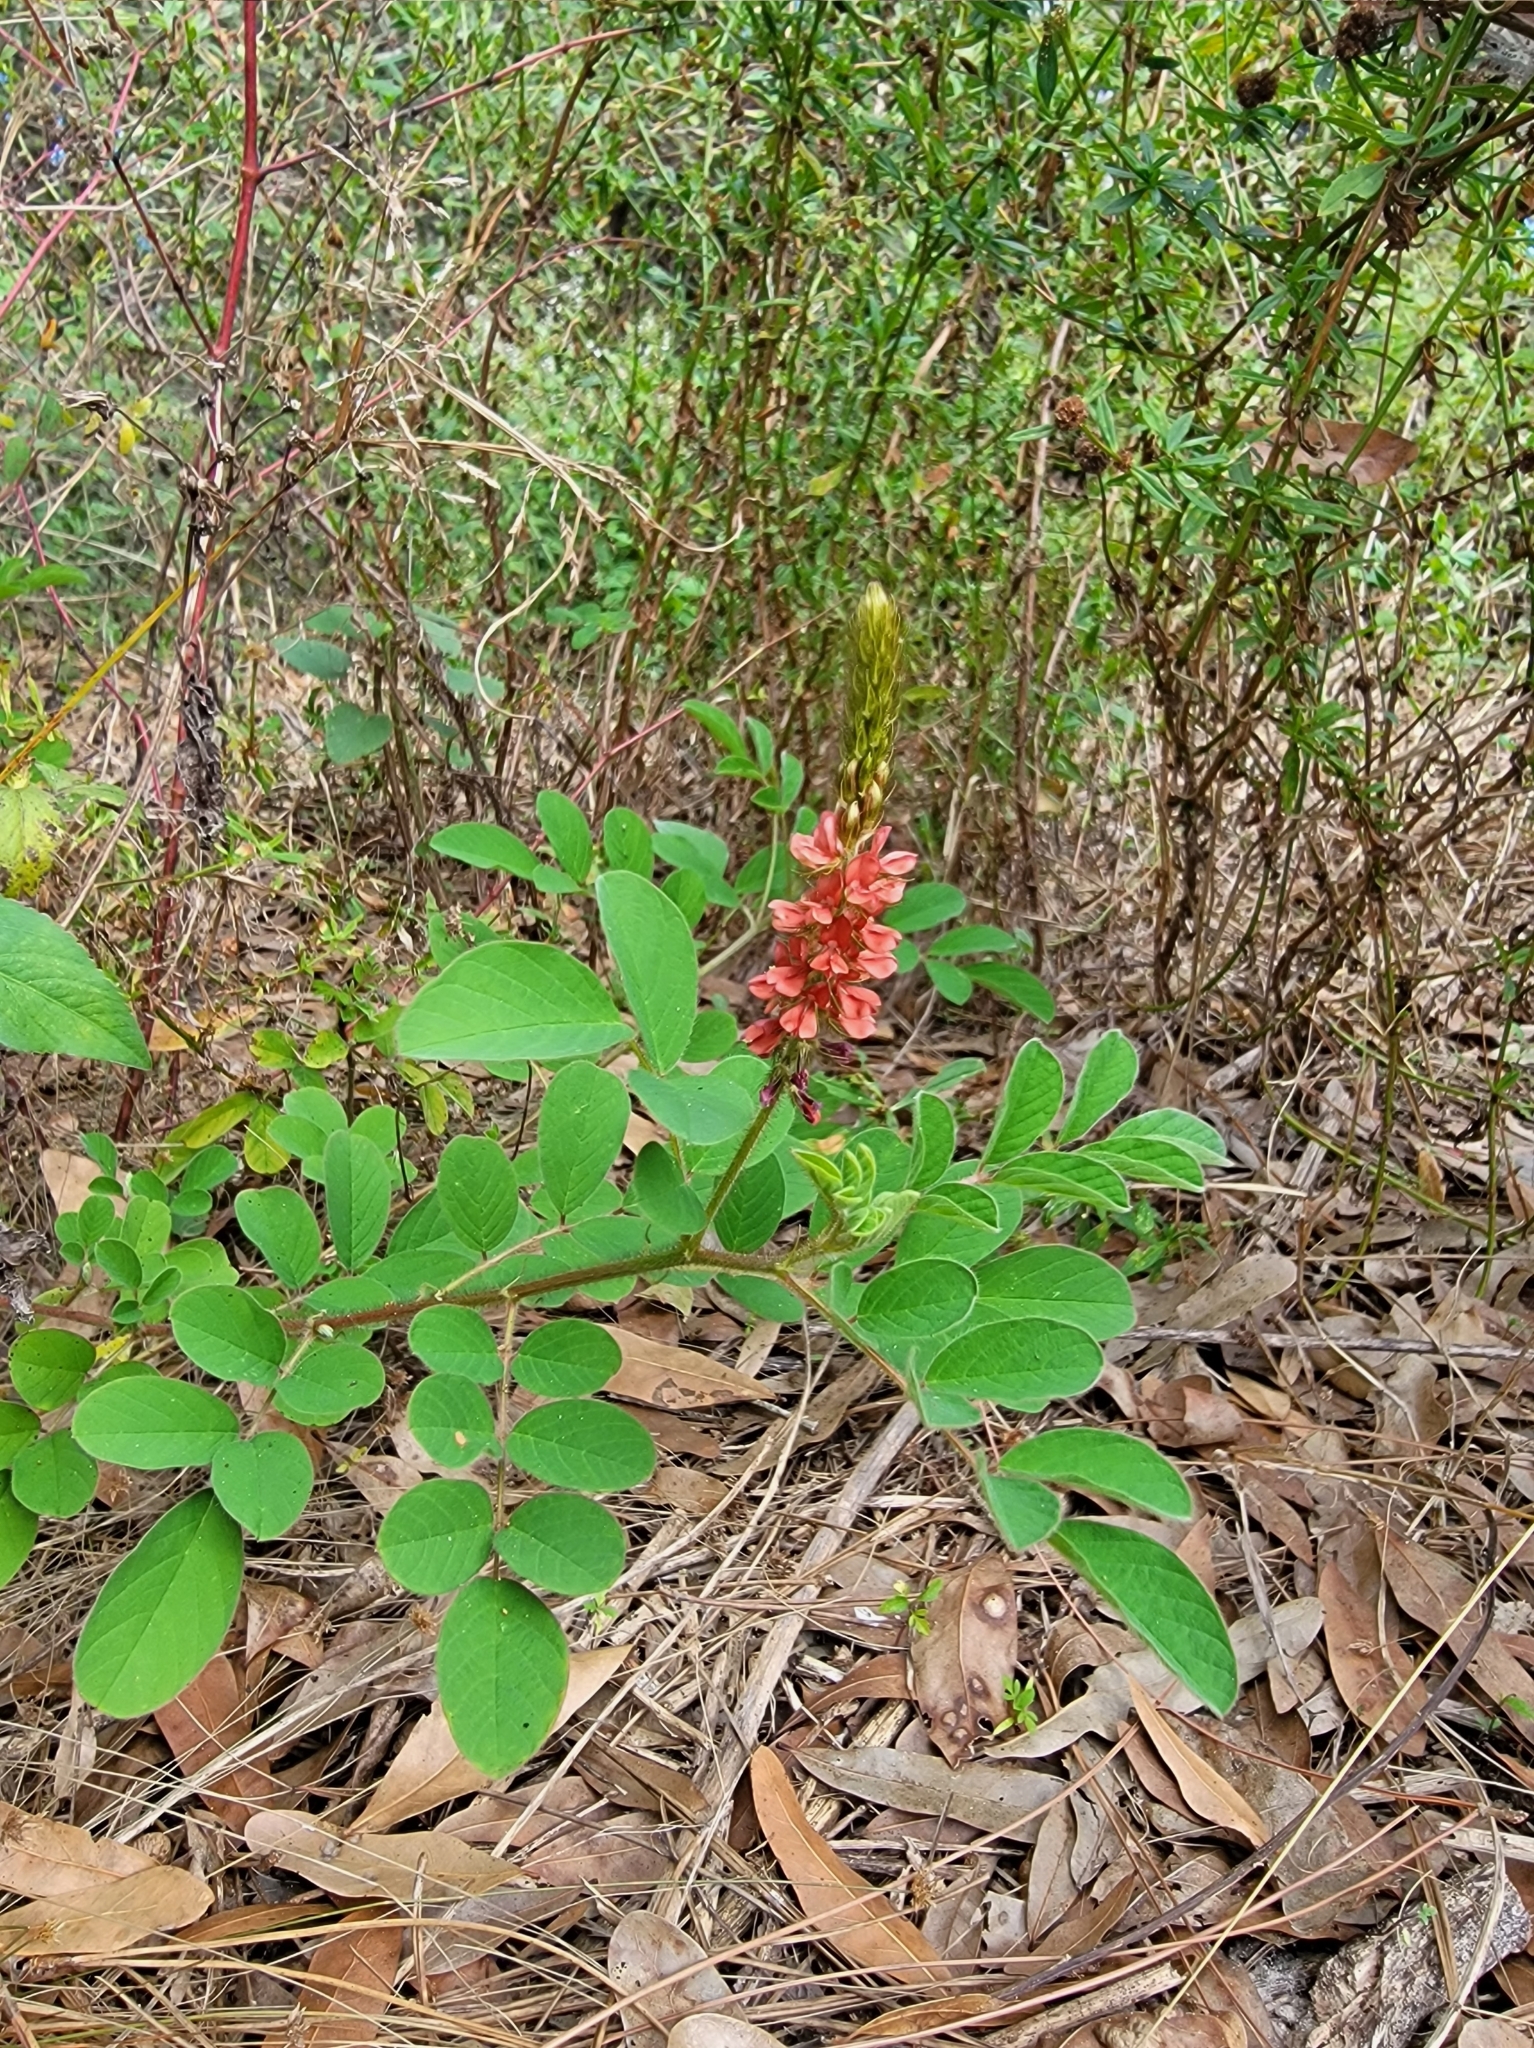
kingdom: Plantae
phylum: Tracheophyta
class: Magnoliopsida
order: Fabales
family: Fabaceae
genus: Indigofera
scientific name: Indigofera hirsuta
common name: Hairy indigo
